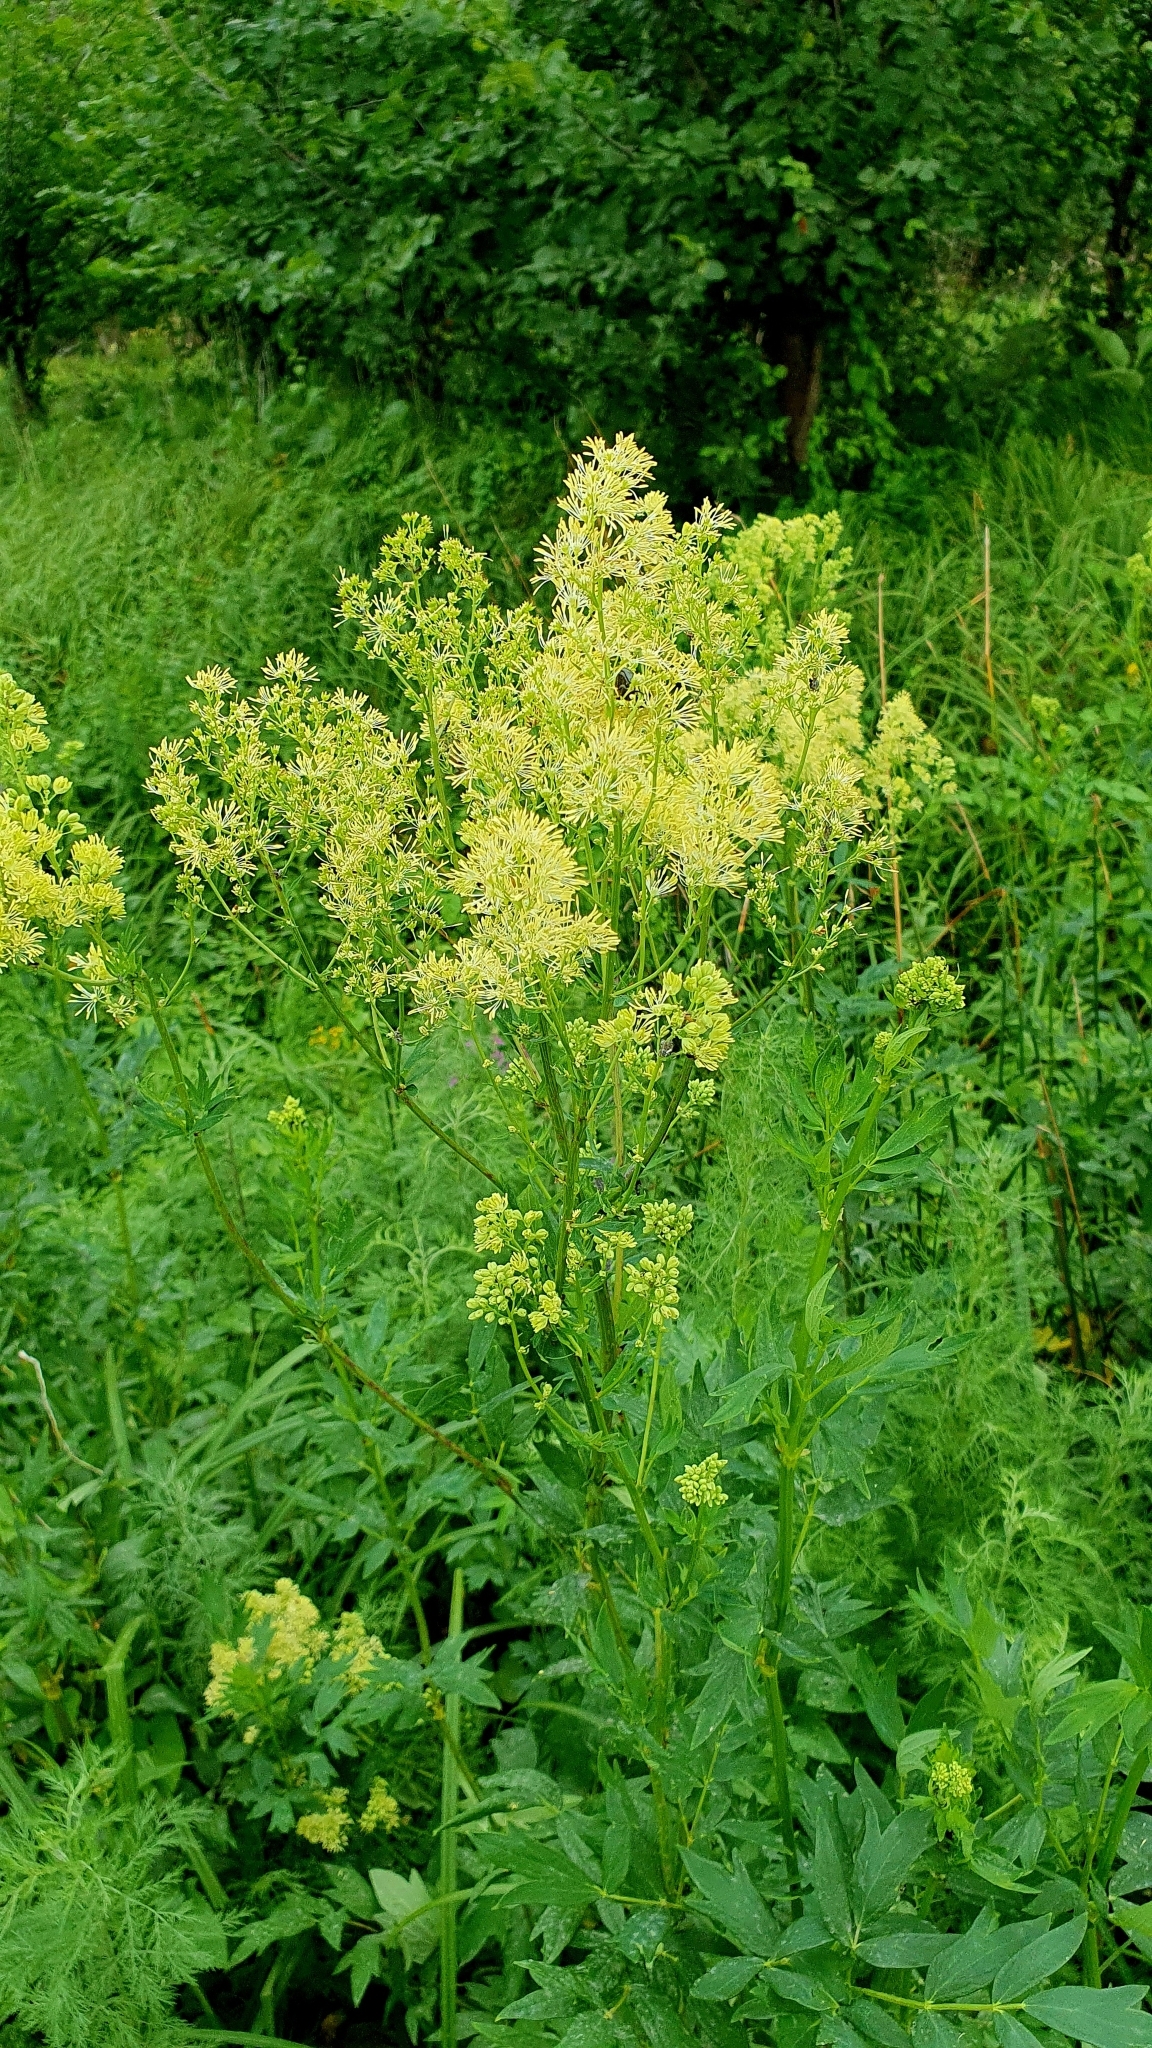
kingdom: Plantae
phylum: Tracheophyta
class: Magnoliopsida
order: Ranunculales
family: Ranunculaceae
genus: Thalictrum
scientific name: Thalictrum flavum
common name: Common meadow-rue
